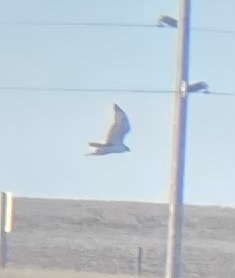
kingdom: Animalia
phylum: Chordata
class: Aves
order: Accipitriformes
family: Accipitridae
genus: Buteo
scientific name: Buteo regalis
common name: Ferruginous hawk
